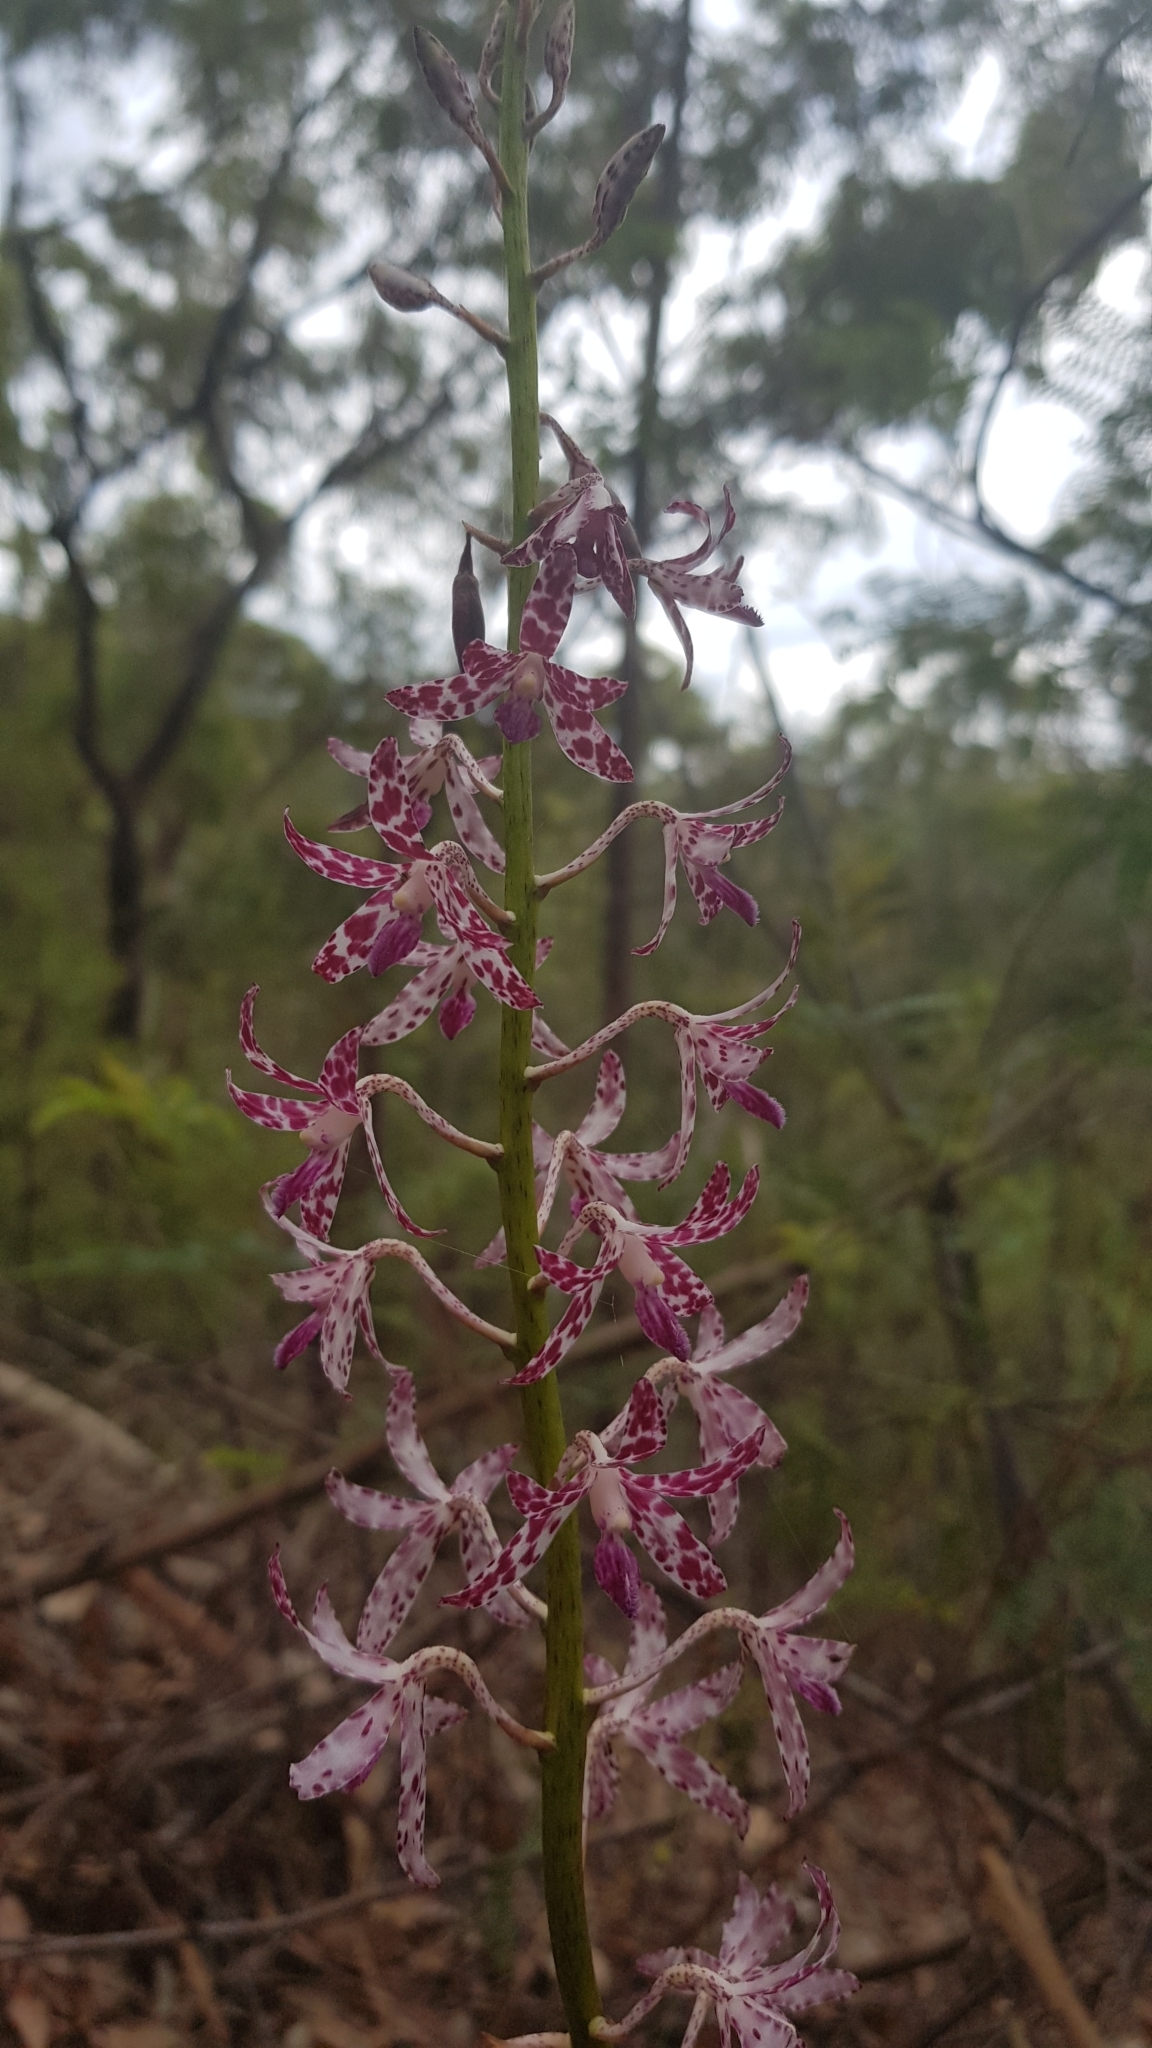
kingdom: Plantae
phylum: Tracheophyta
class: Liliopsida
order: Asparagales
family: Orchidaceae
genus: Dipodium
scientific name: Dipodium variegatum
